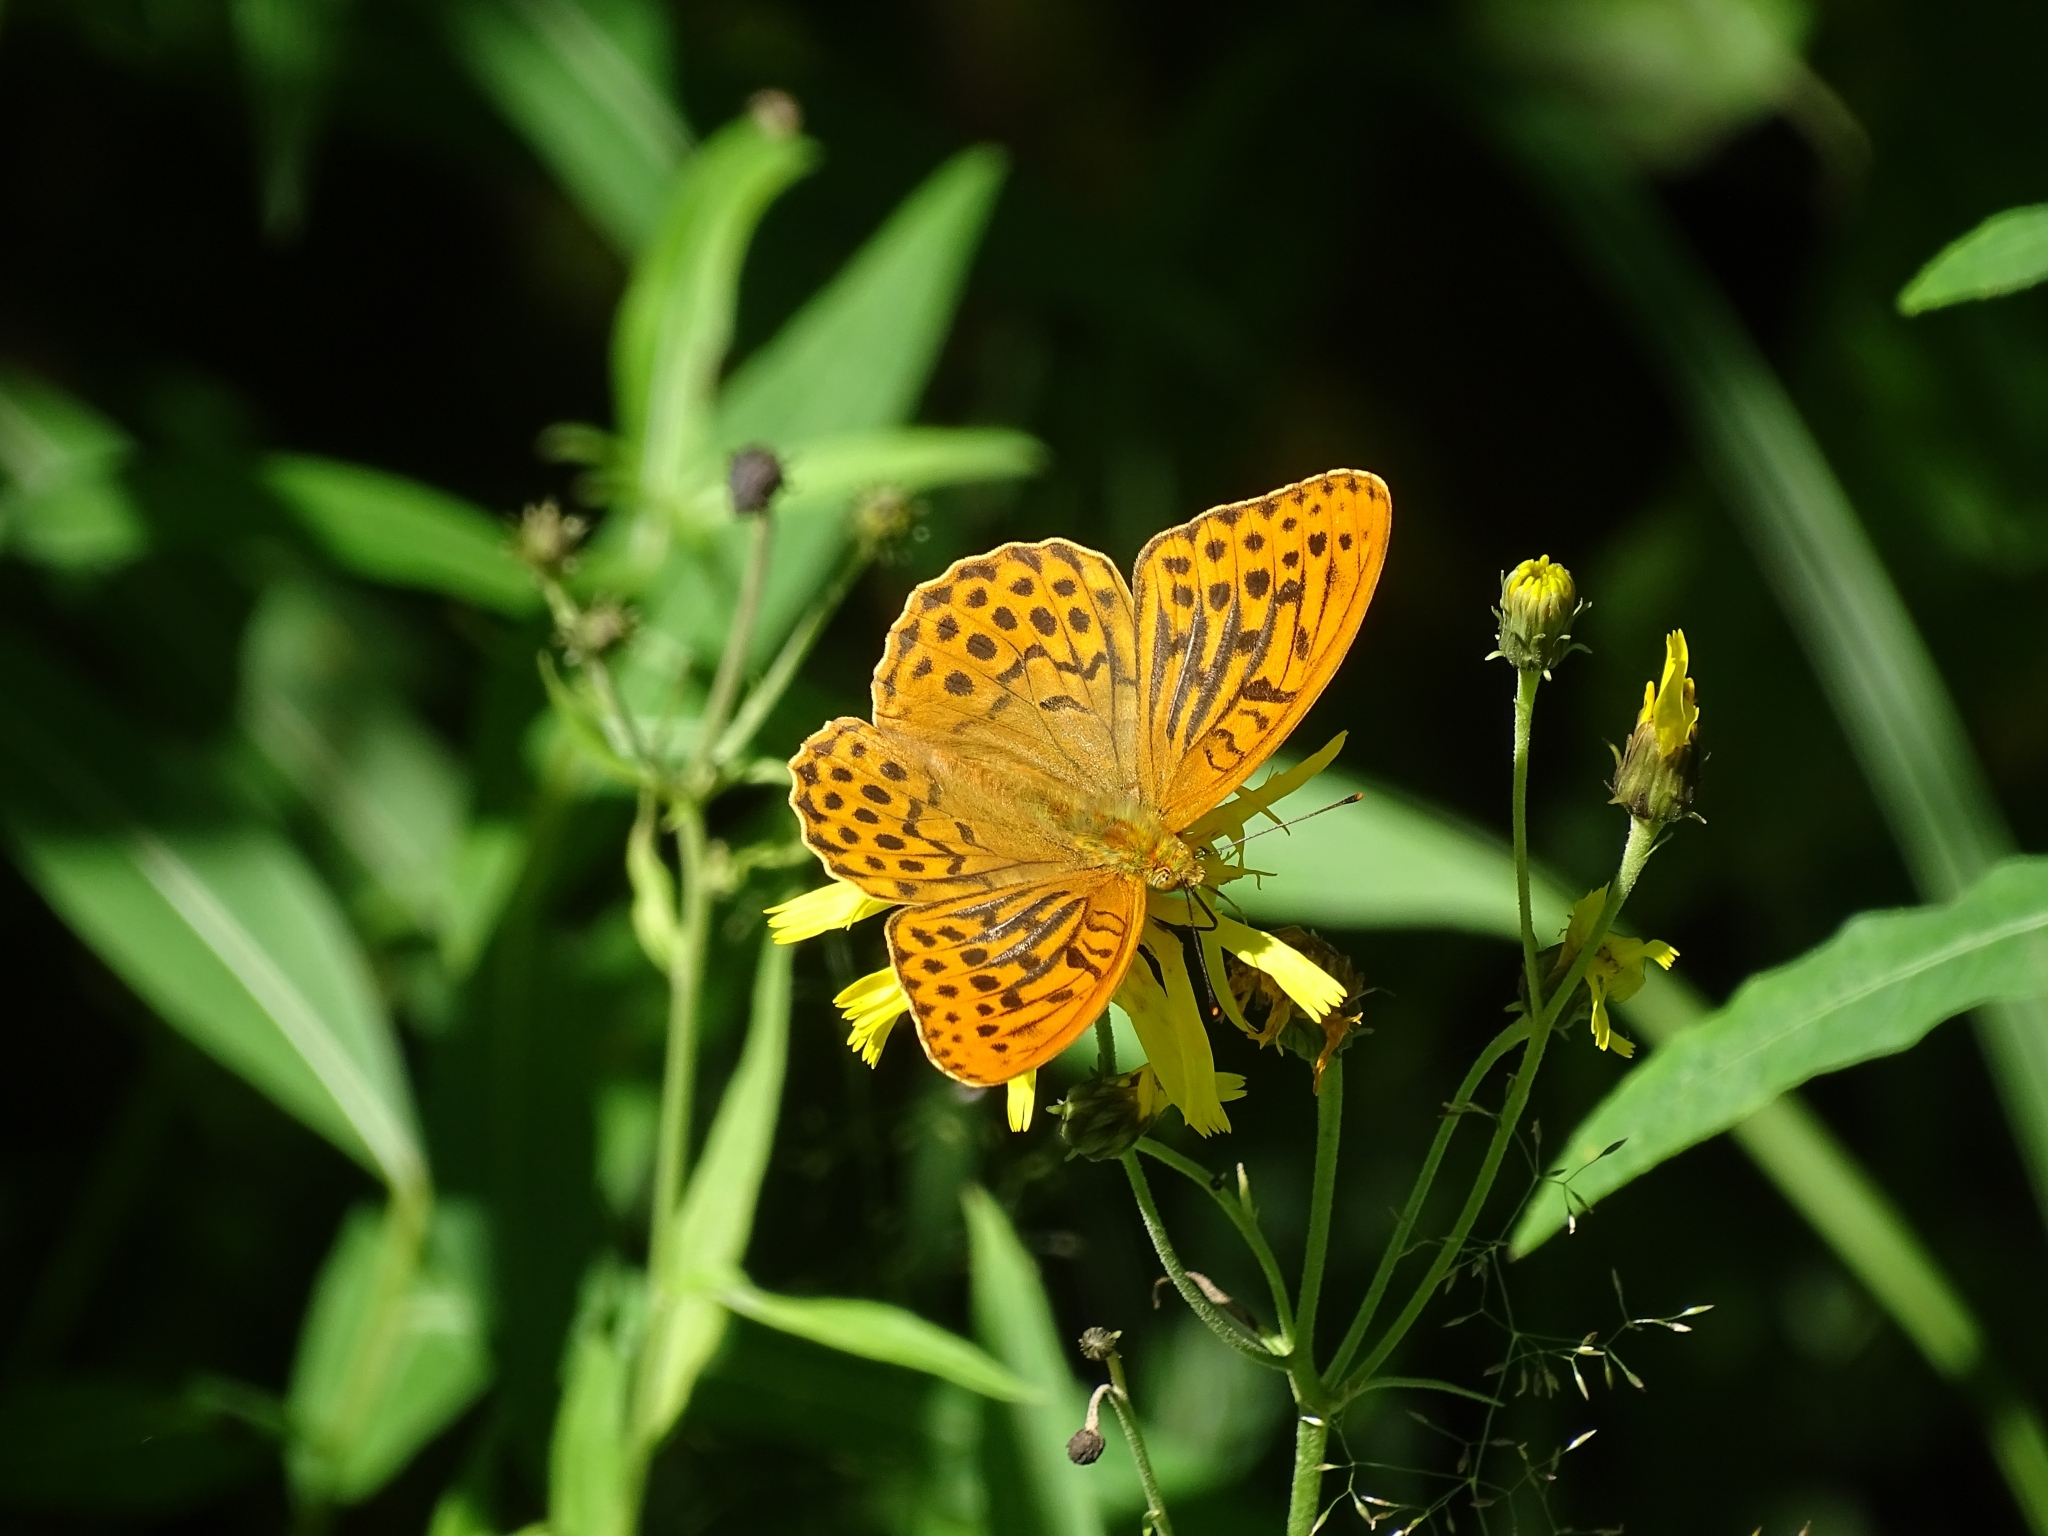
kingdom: Animalia
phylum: Arthropoda
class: Insecta
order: Lepidoptera
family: Nymphalidae
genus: Argynnis
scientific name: Argynnis paphia
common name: Silver-washed fritillary
